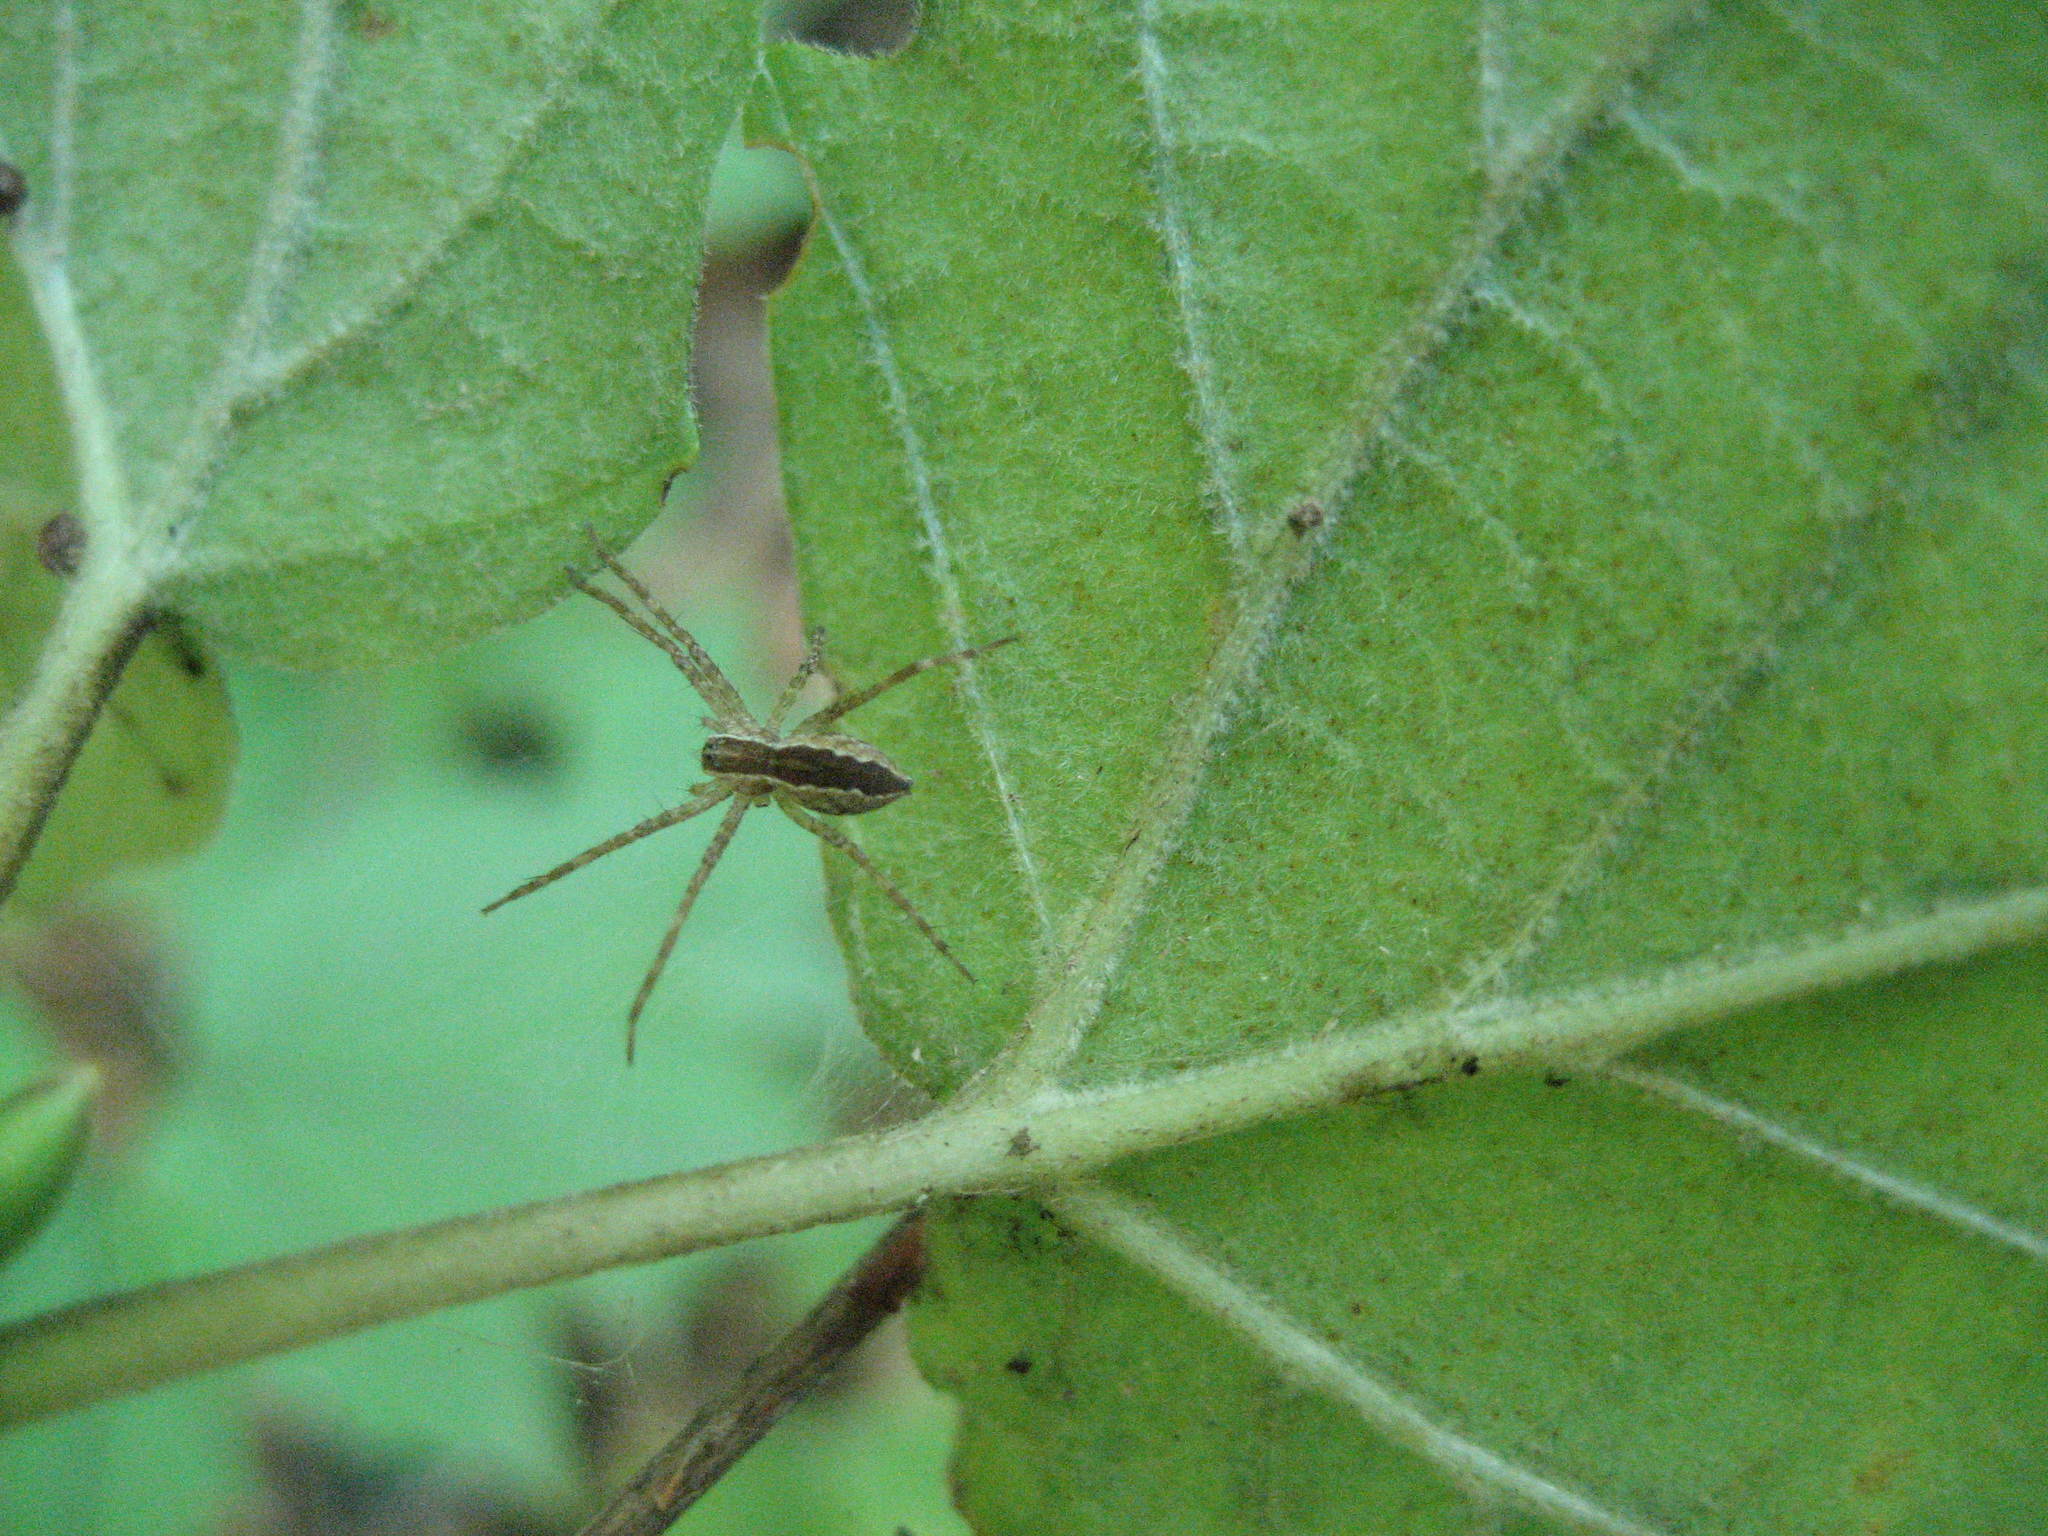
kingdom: Plantae
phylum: Tracheophyta
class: Magnoliopsida
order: Dipsacales
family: Viburnaceae
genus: Viburnum
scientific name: Viburnum acerifolium
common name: Dockmackie
